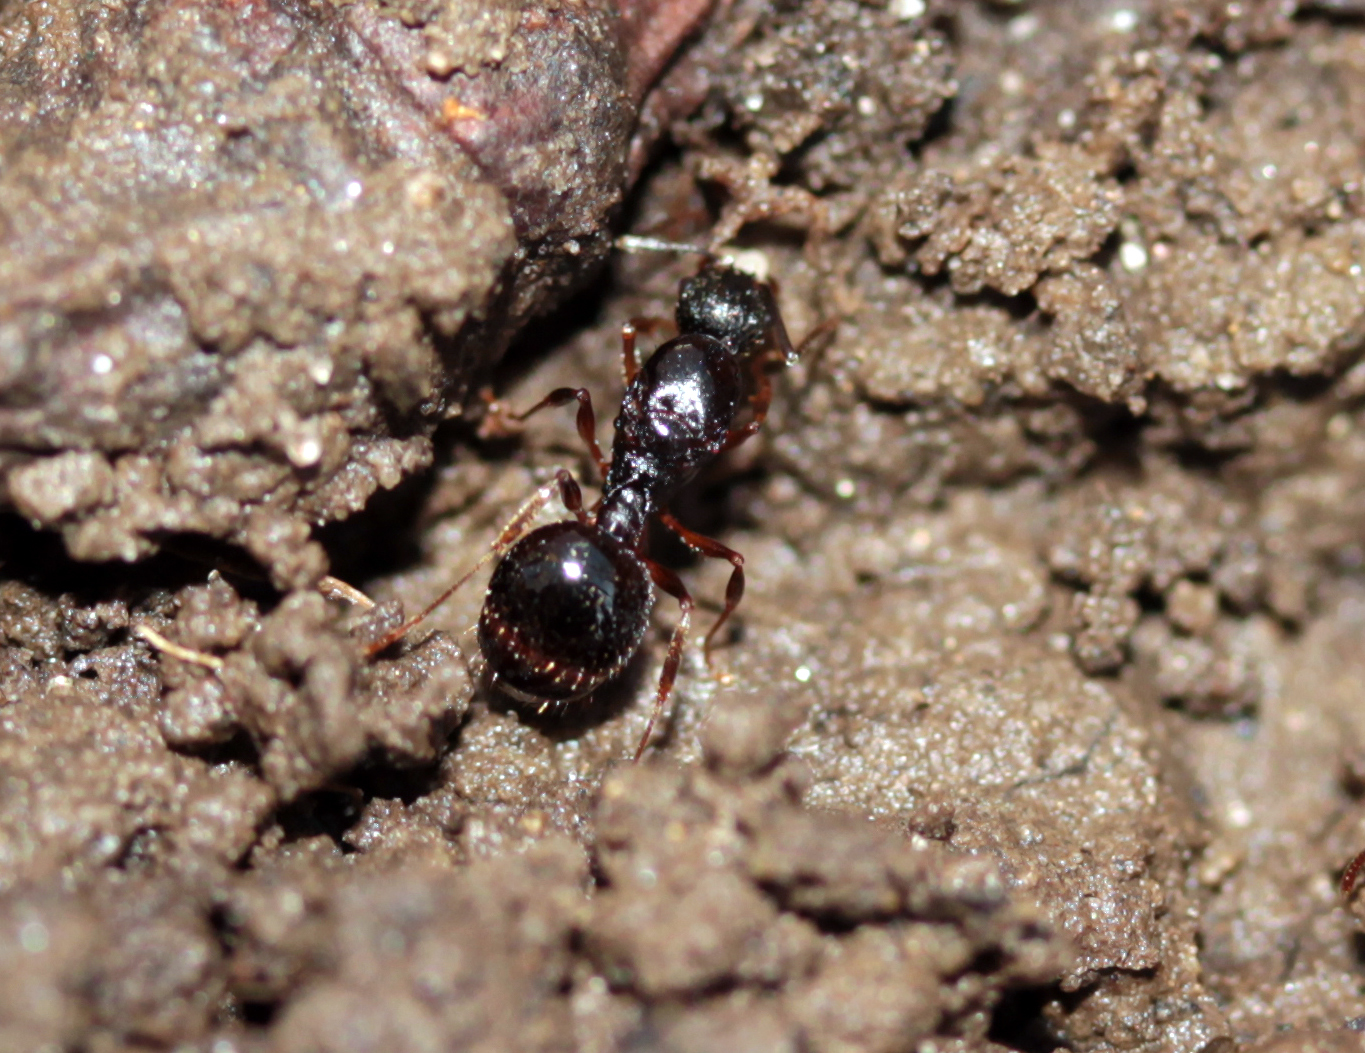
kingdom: Animalia
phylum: Arthropoda
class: Insecta
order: Hymenoptera
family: Formicidae
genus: Aphaenogaster
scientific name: Aphaenogaster picea
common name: Pitch-black collared ant
